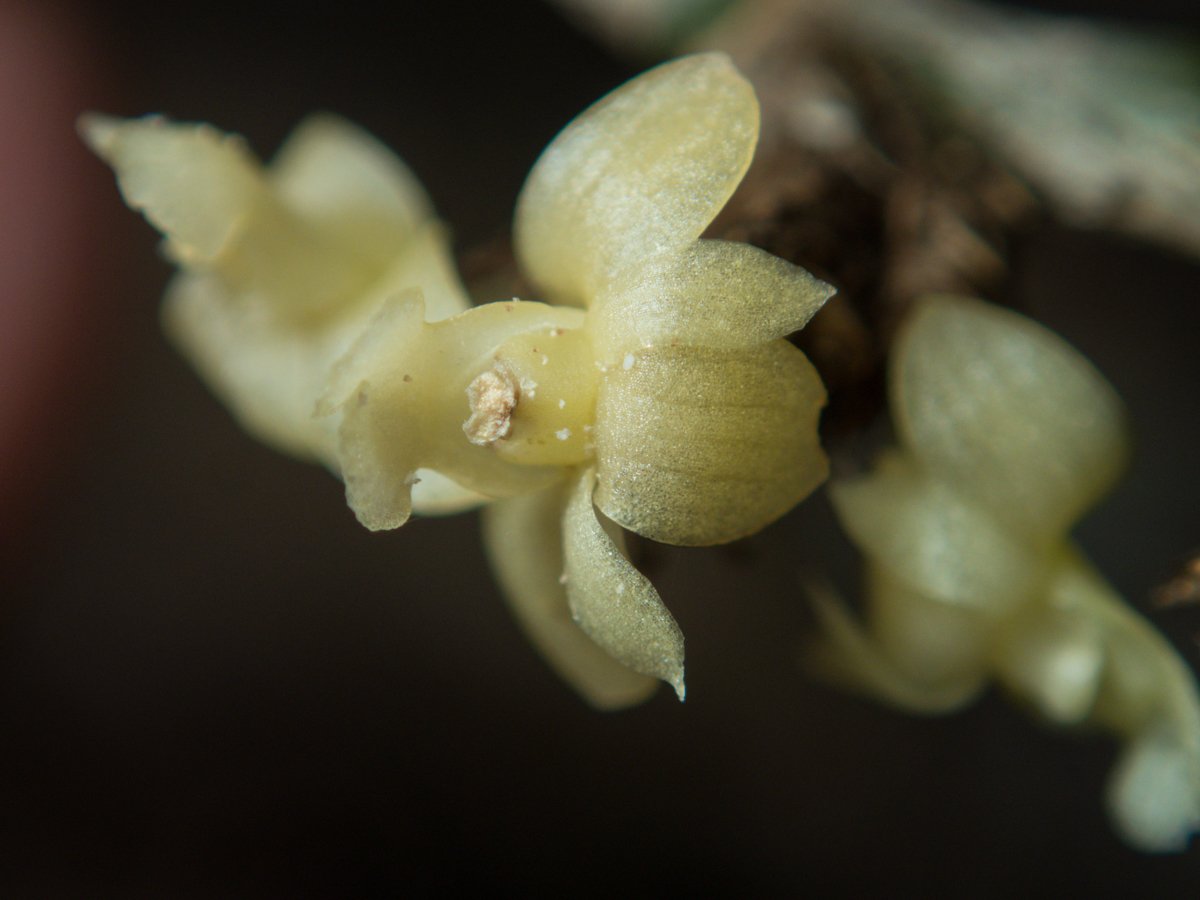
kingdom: Plantae
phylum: Tracheophyta
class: Liliopsida
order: Asparagales
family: Orchidaceae
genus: Dendrobium
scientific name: Dendrobium aloifolium
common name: Aloe-like dendrobium
